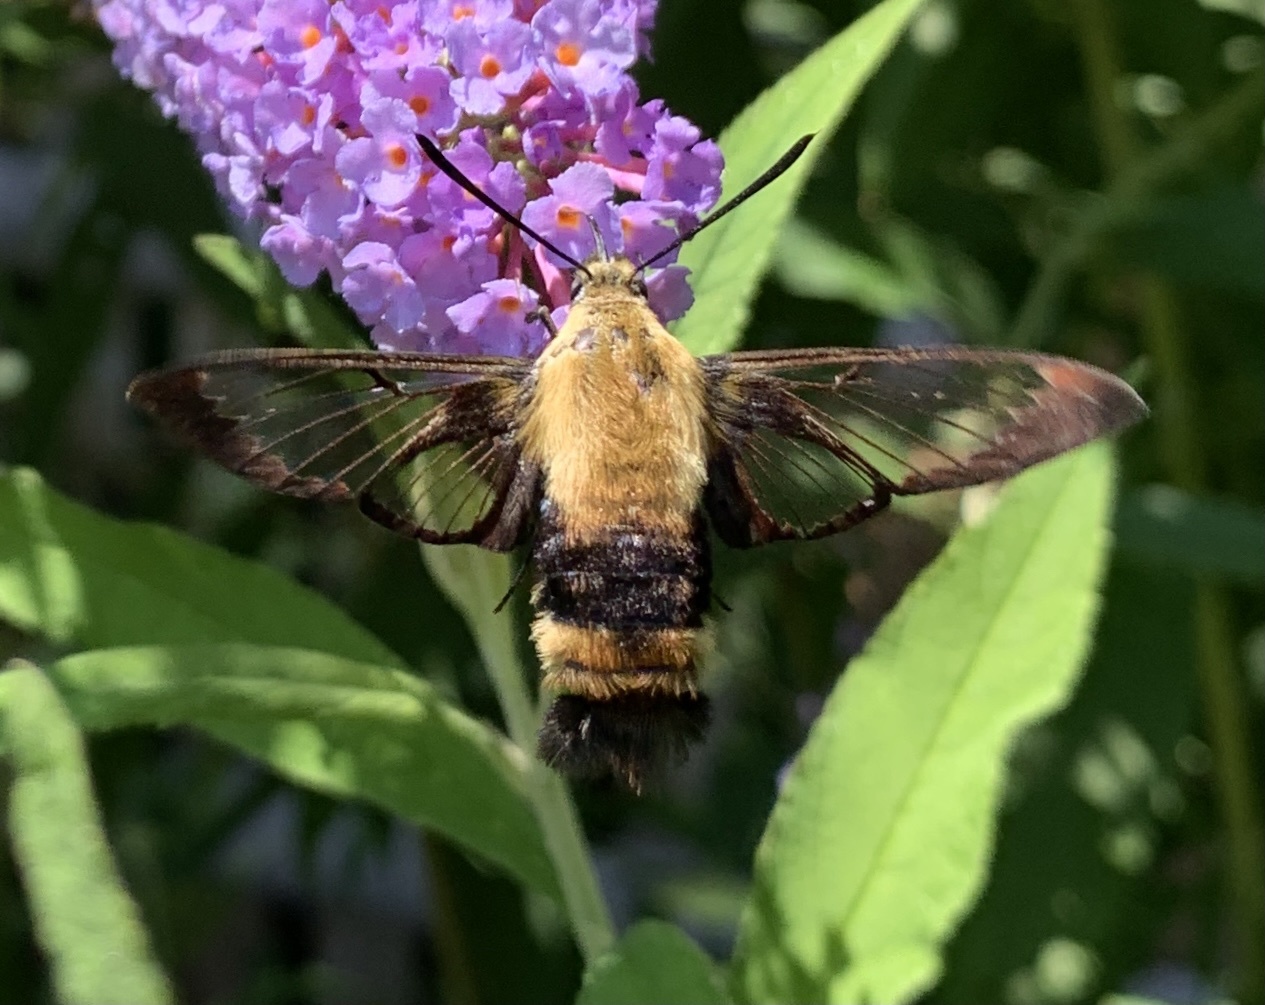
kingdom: Animalia
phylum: Arthropoda
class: Insecta
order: Lepidoptera
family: Sphingidae
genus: Hemaris
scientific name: Hemaris diffinis
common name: Bumblebee moth
